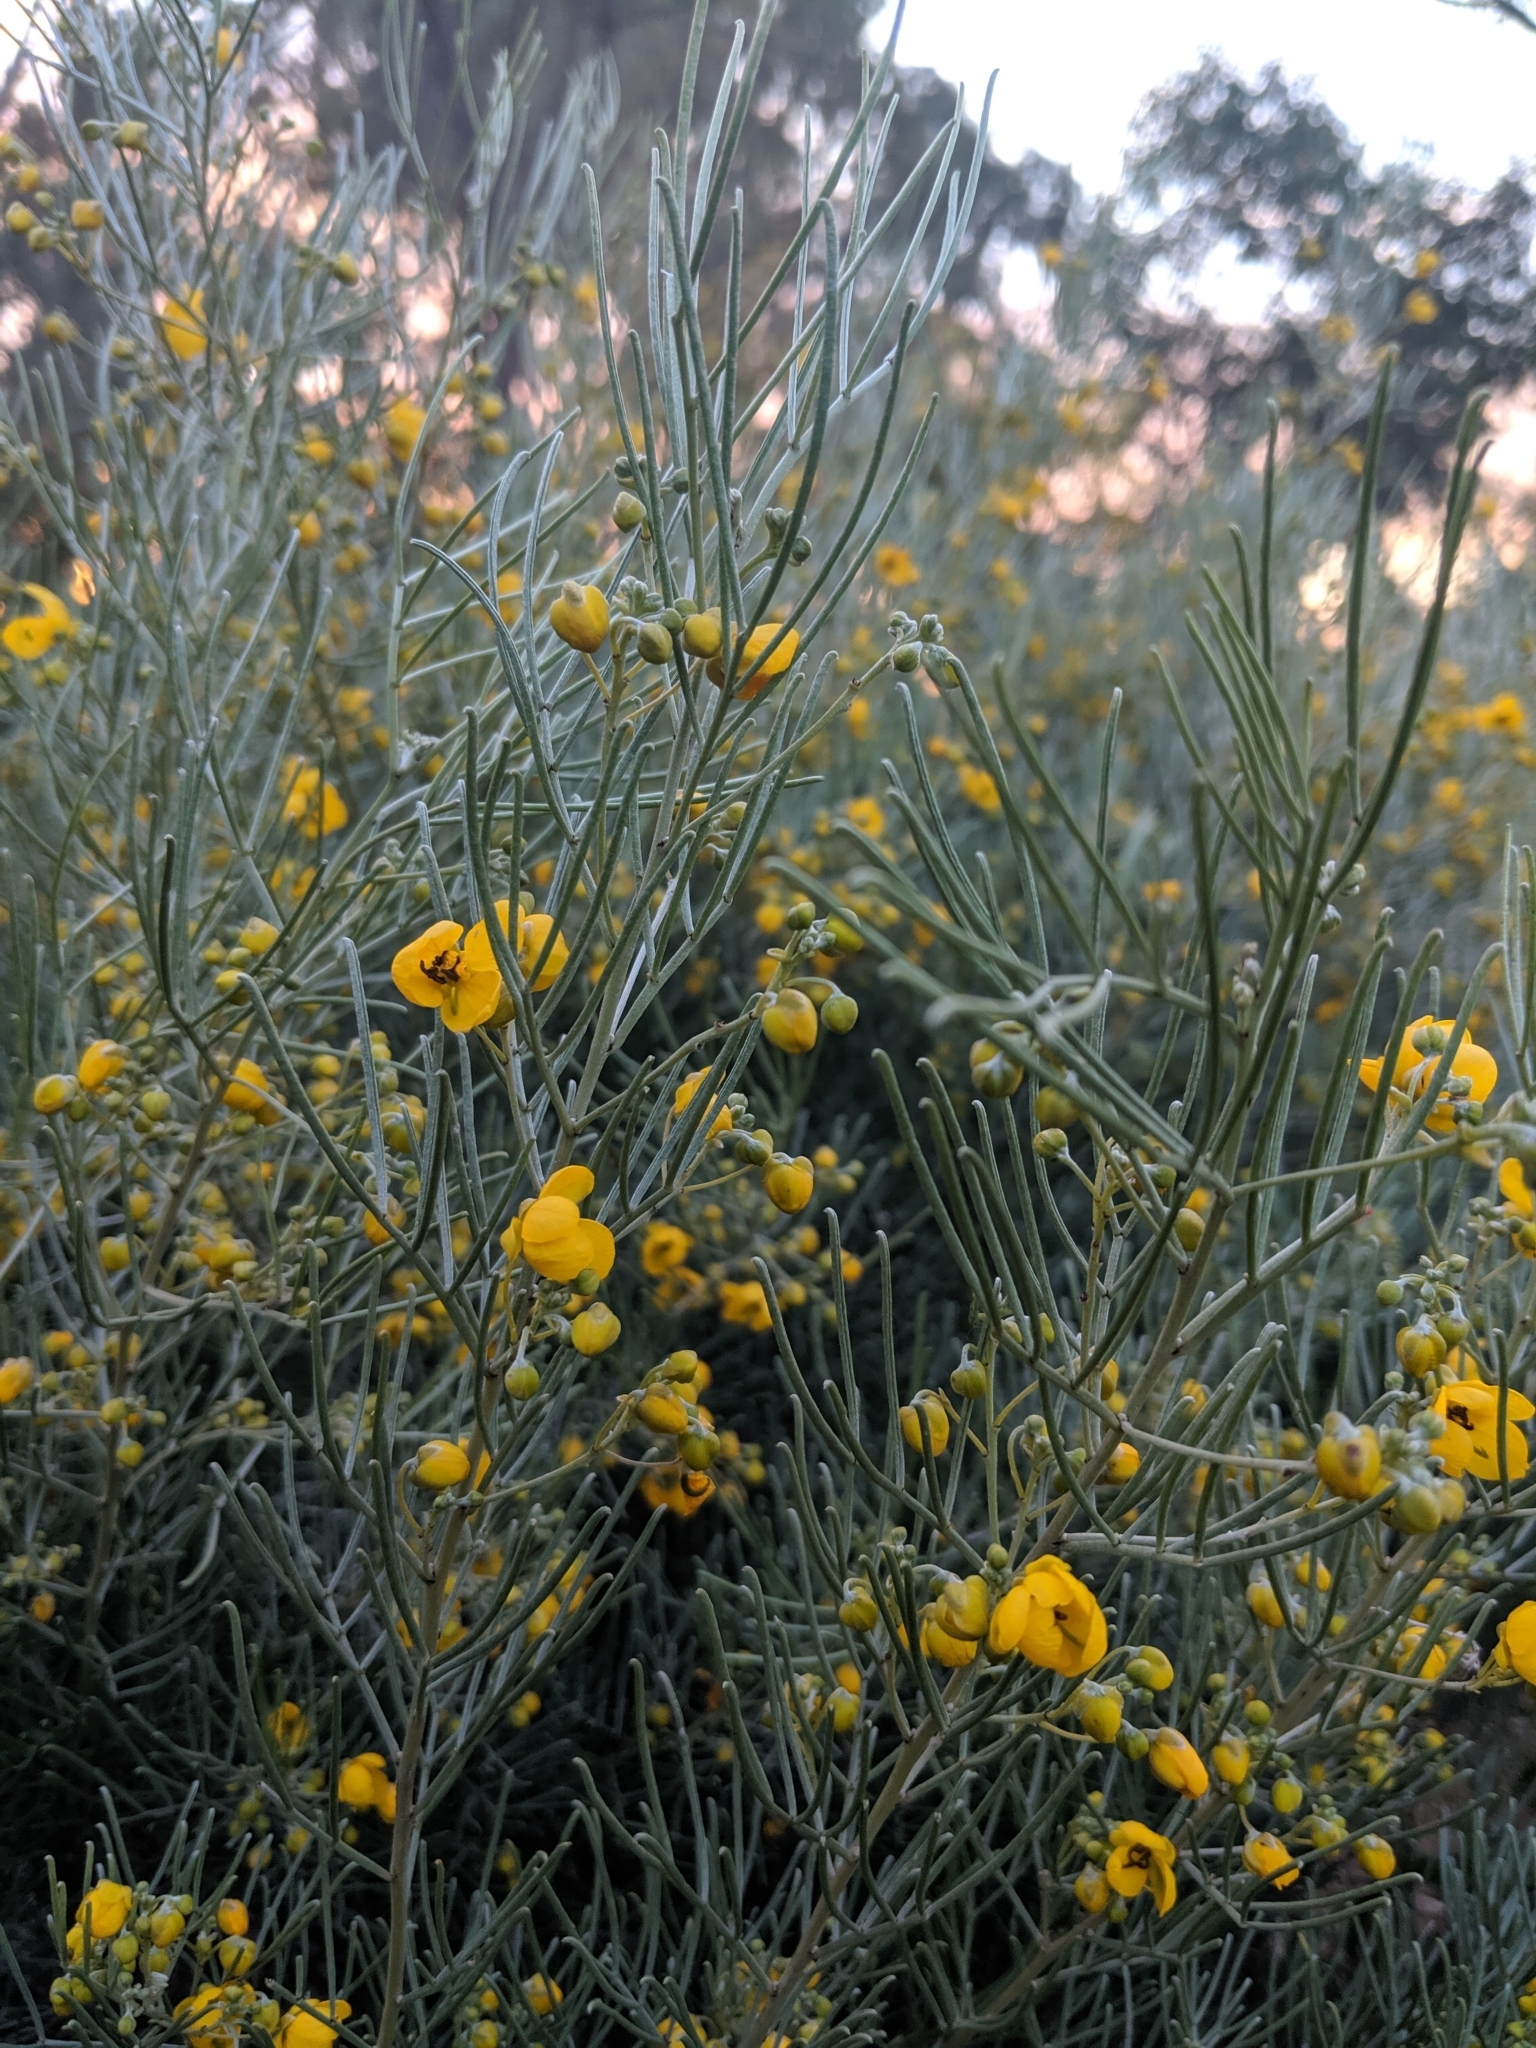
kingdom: Plantae
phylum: Tracheophyta
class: Magnoliopsida
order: Fabales
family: Fabaceae
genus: Senna
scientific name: Senna artemisioides
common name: Burnt-leaved acacia
